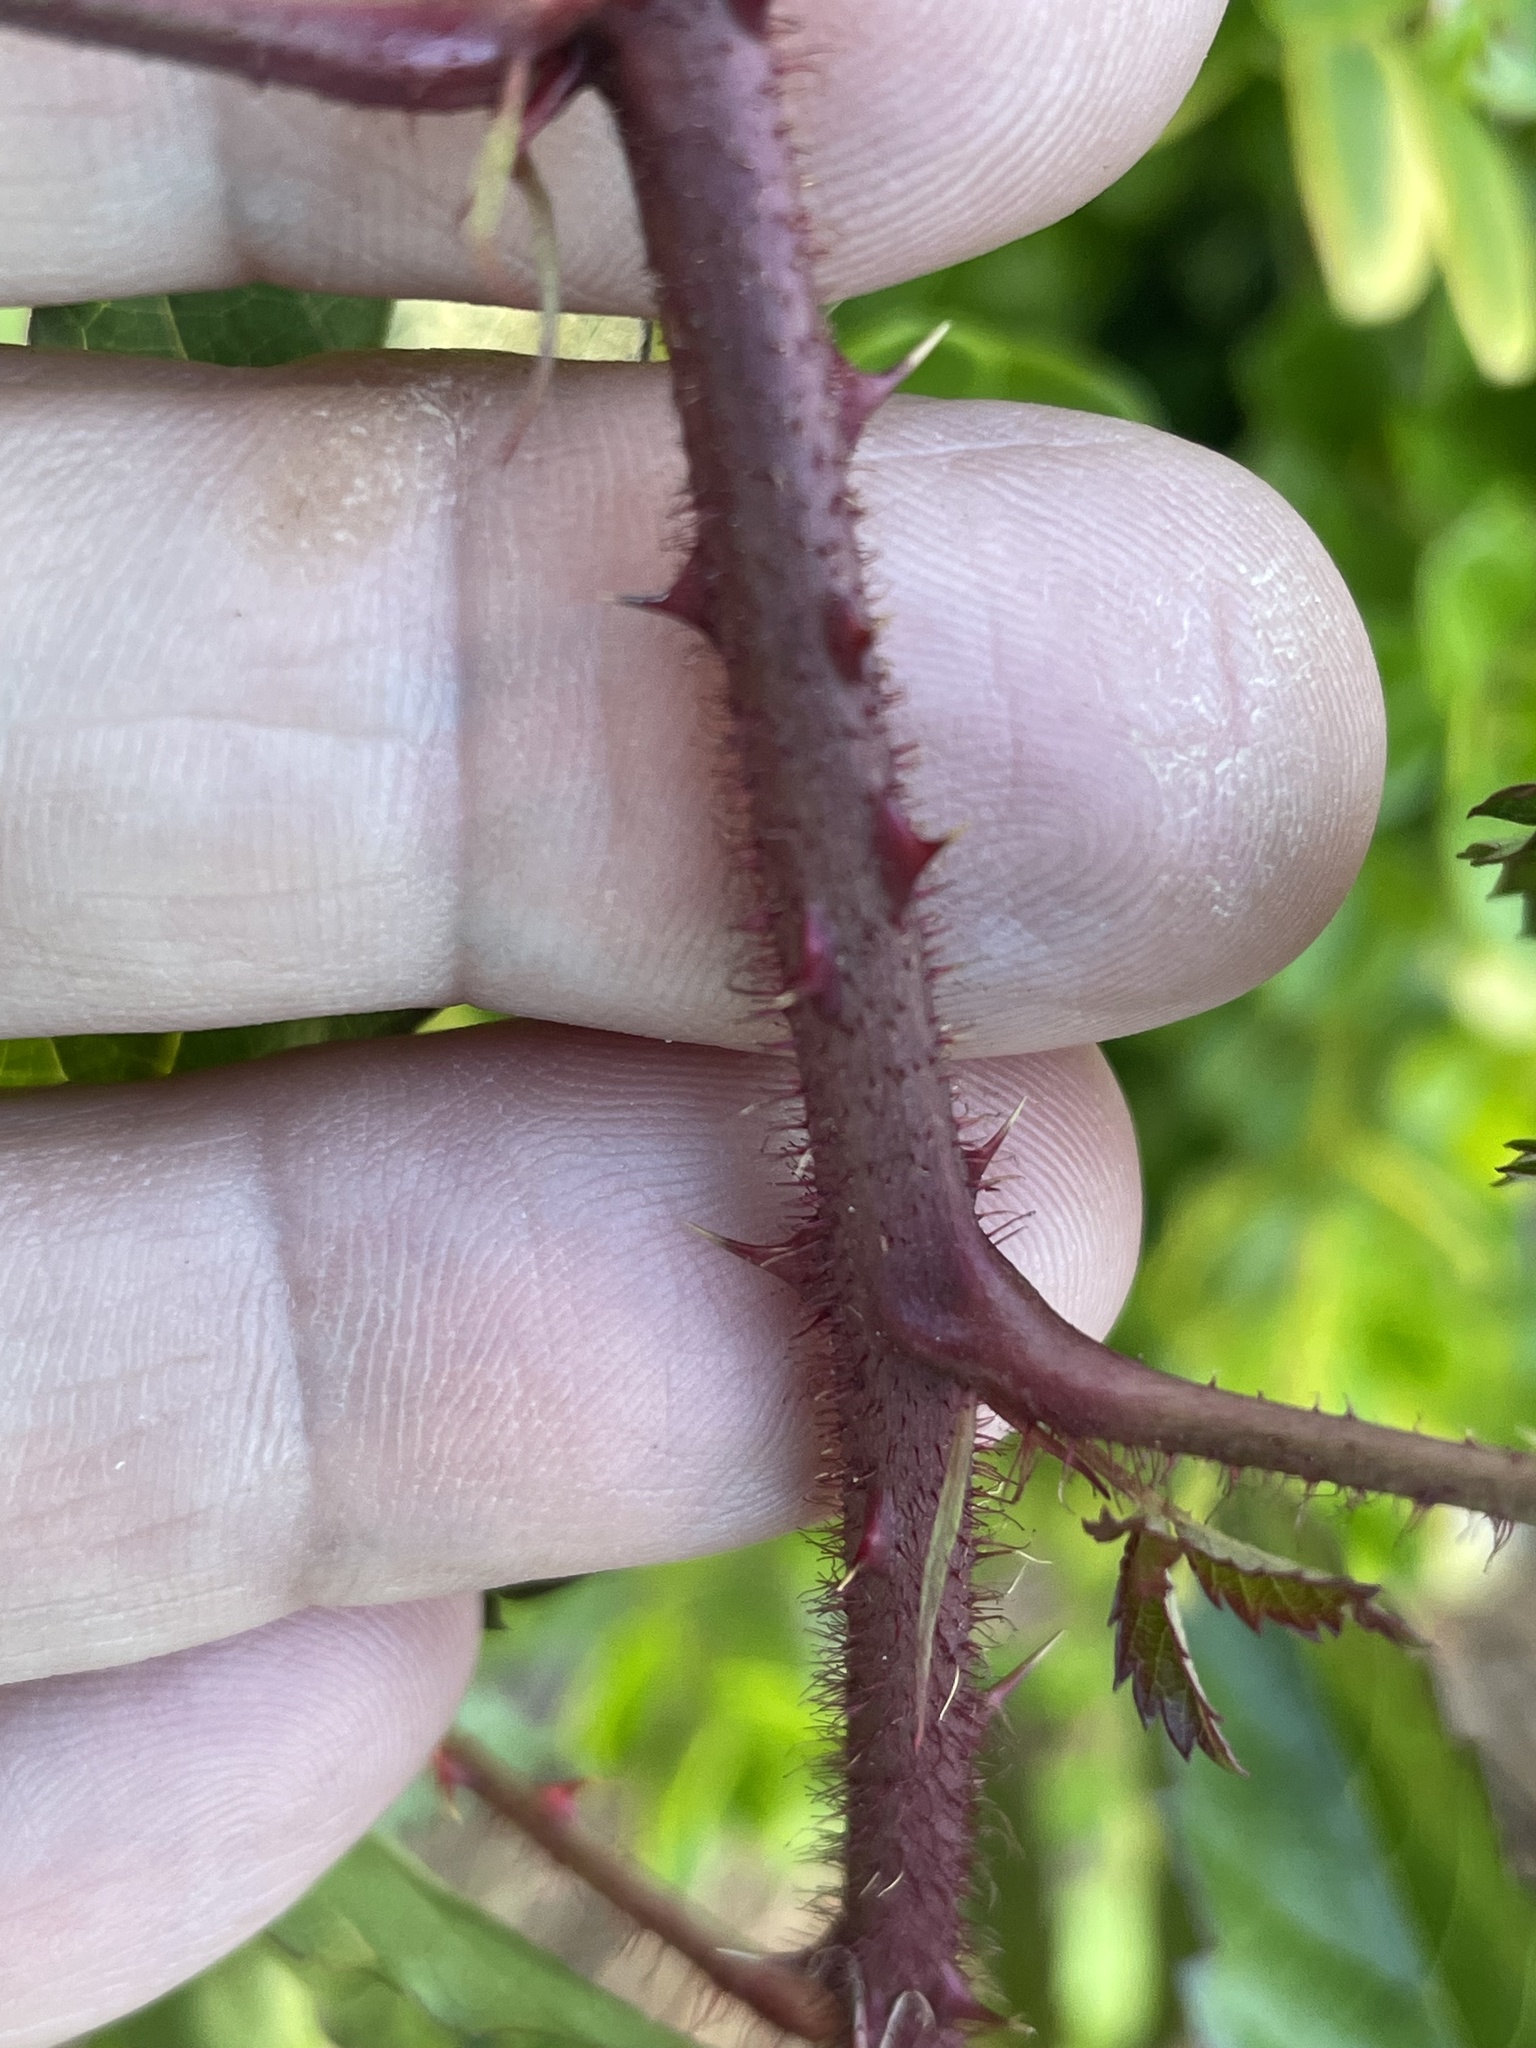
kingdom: Plantae
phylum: Tracheophyta
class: Magnoliopsida
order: Rosales
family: Rosaceae
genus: Rubus
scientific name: Rubus trivialis
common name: Southern dewberry
